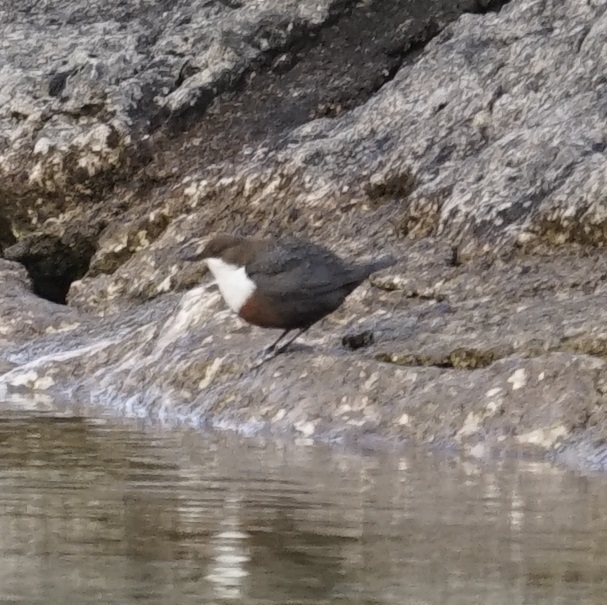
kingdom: Animalia
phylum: Chordata
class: Aves
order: Passeriformes
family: Cinclidae
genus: Cinclus
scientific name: Cinclus cinclus
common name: White-throated dipper
